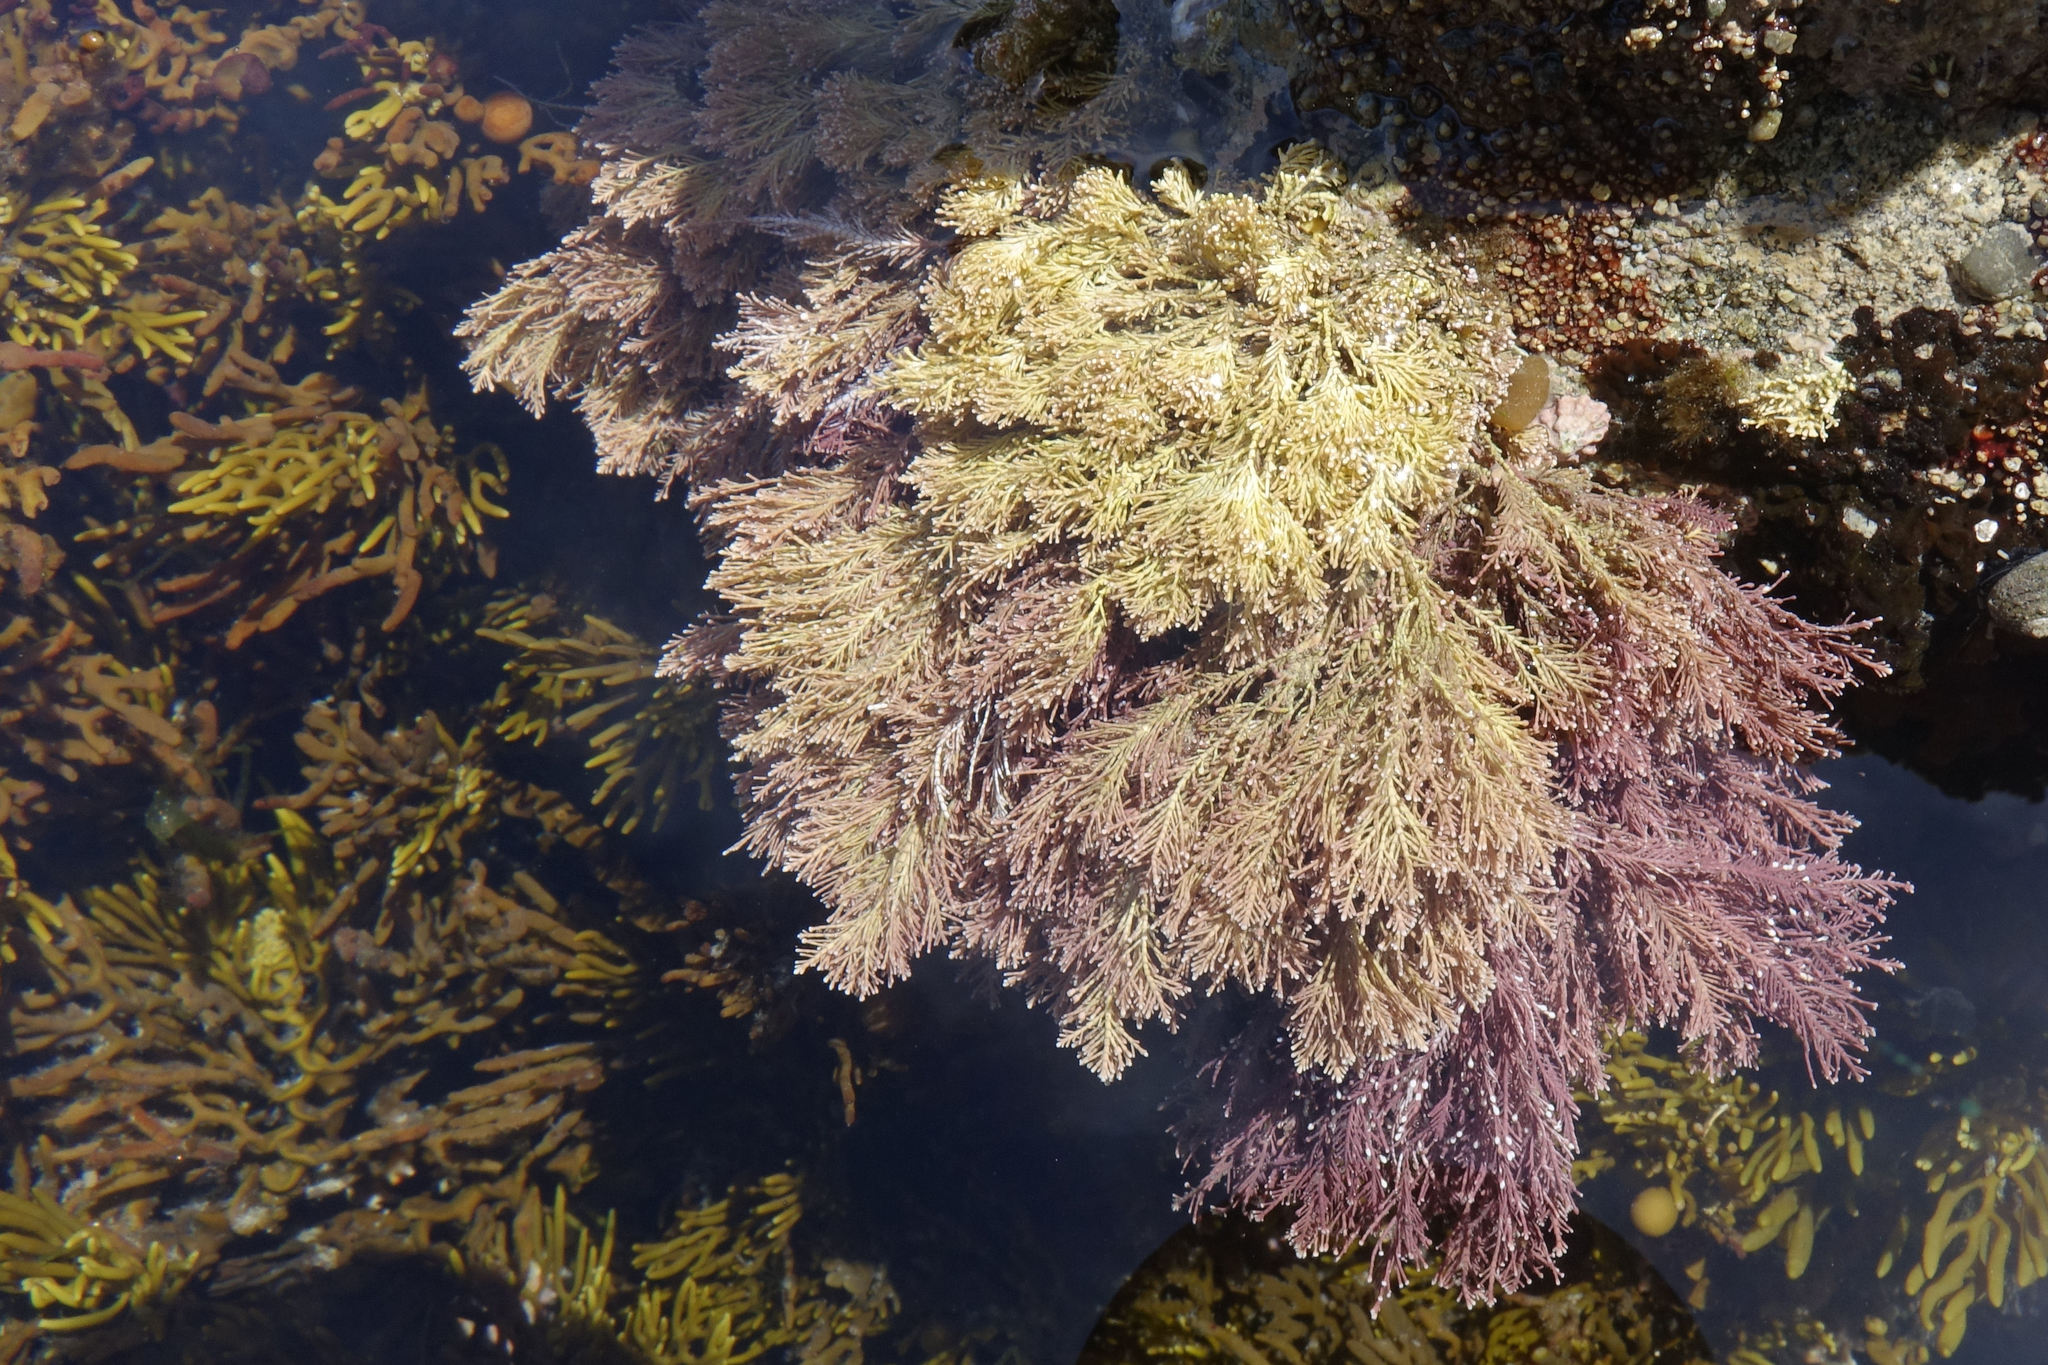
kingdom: Plantae
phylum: Rhodophyta
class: Florideophyceae
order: Corallinales
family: Corallinaceae
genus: Jania
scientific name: Jania rosea
